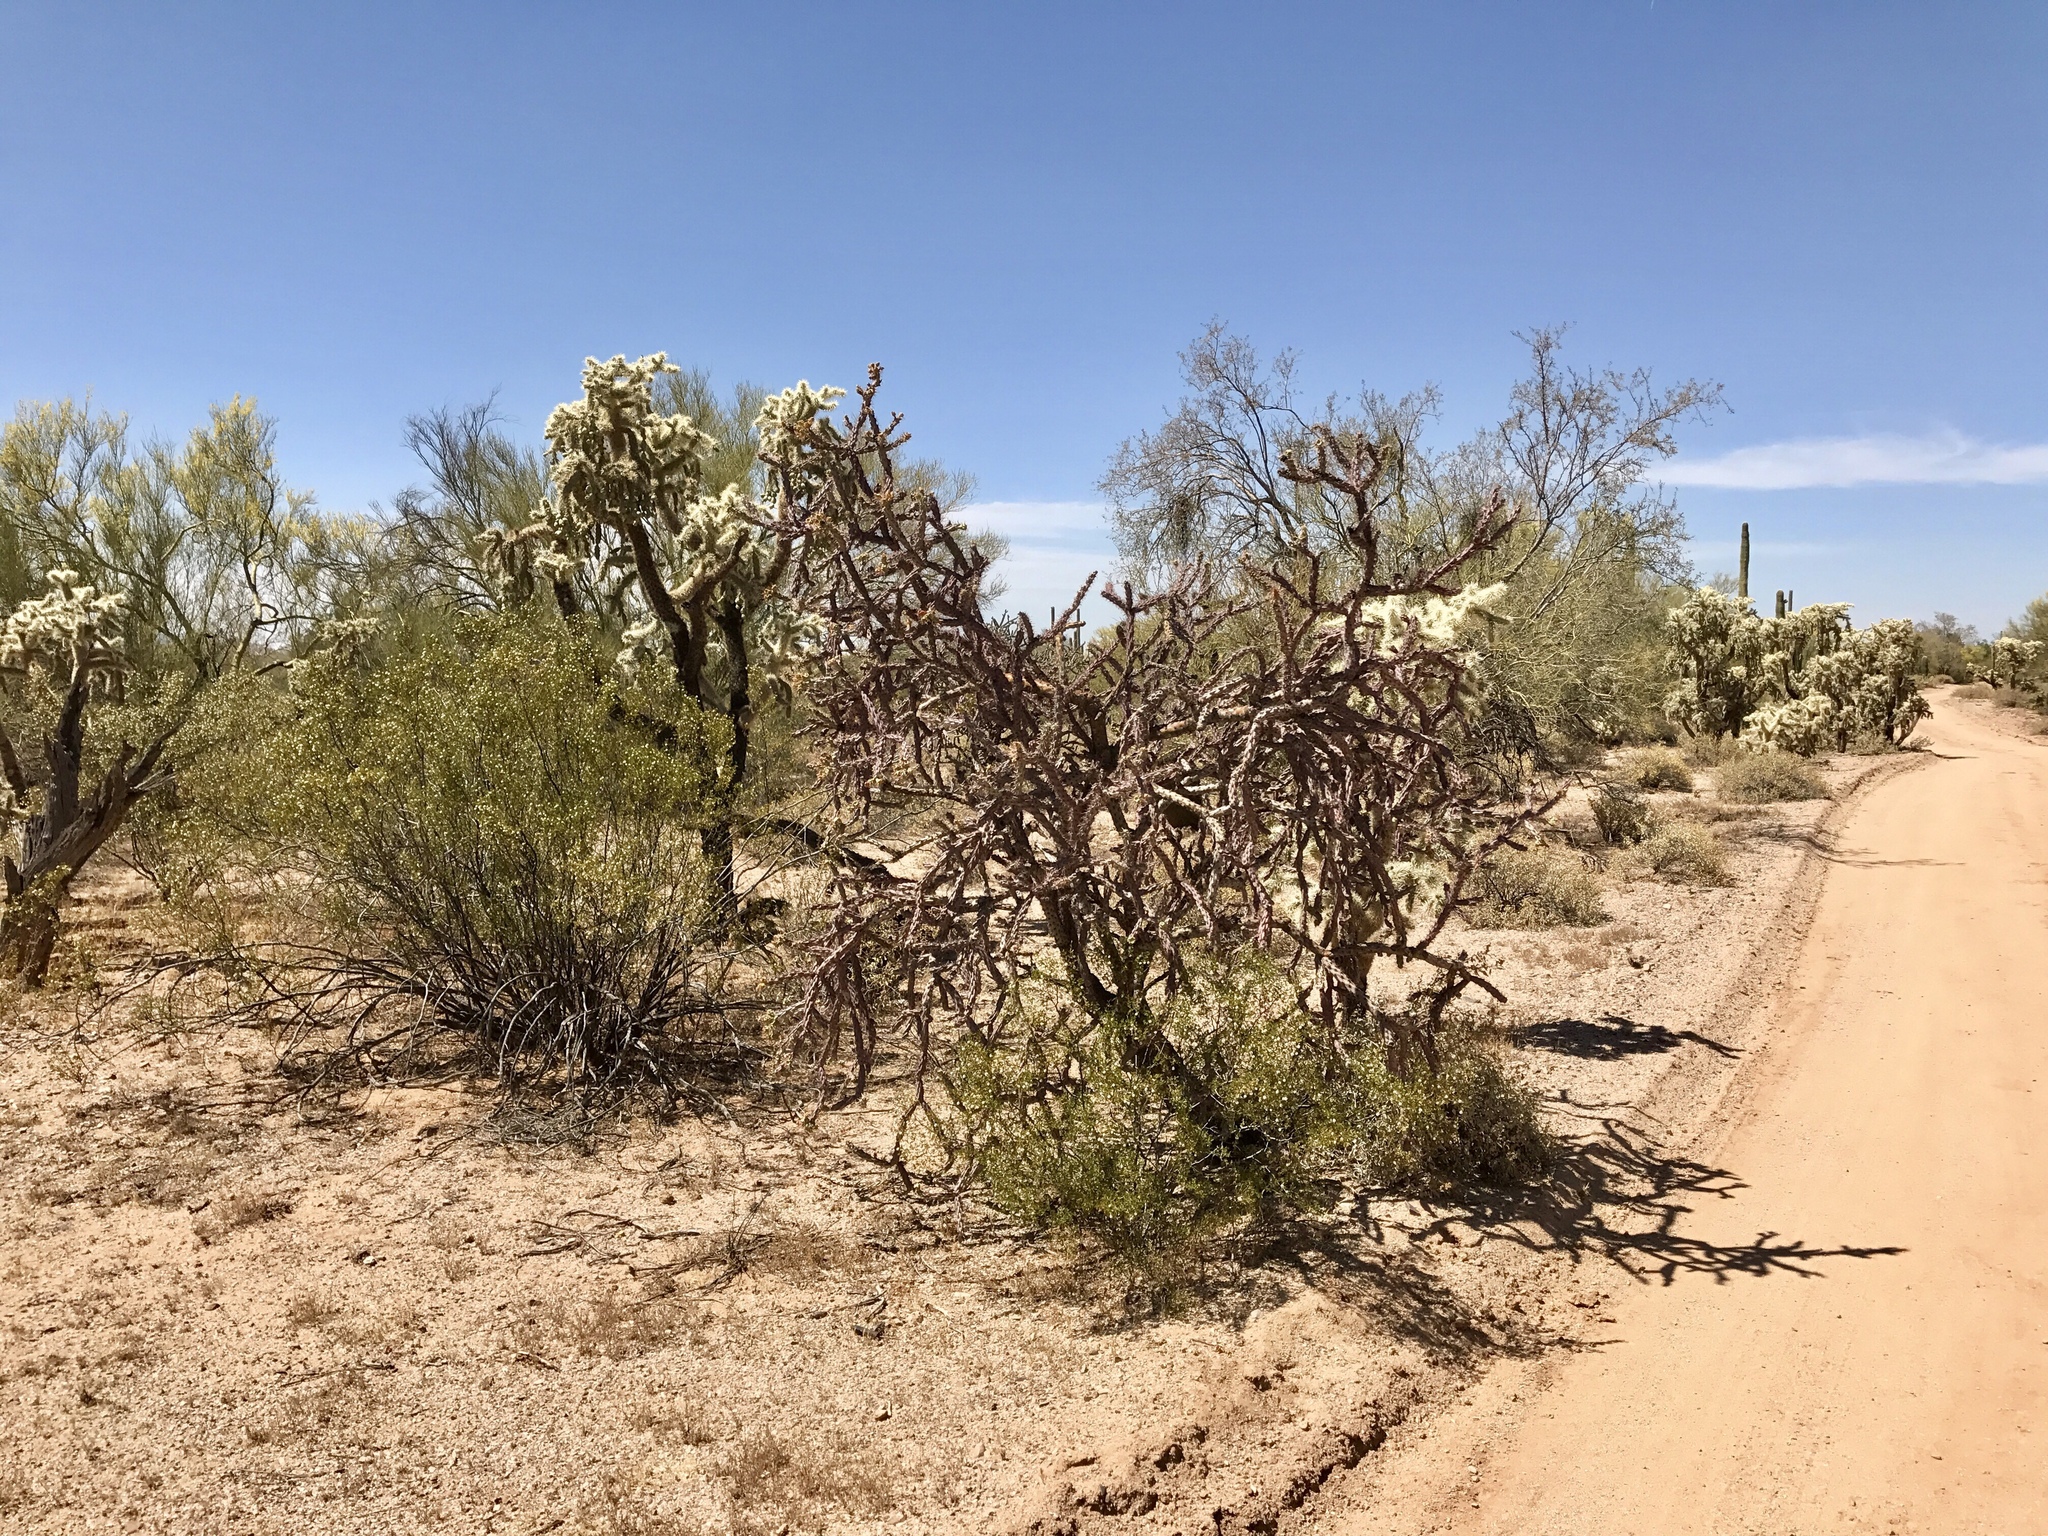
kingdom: Plantae
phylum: Tracheophyta
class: Magnoliopsida
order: Caryophyllales
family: Cactaceae
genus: Cylindropuntia
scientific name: Cylindropuntia thurberi
